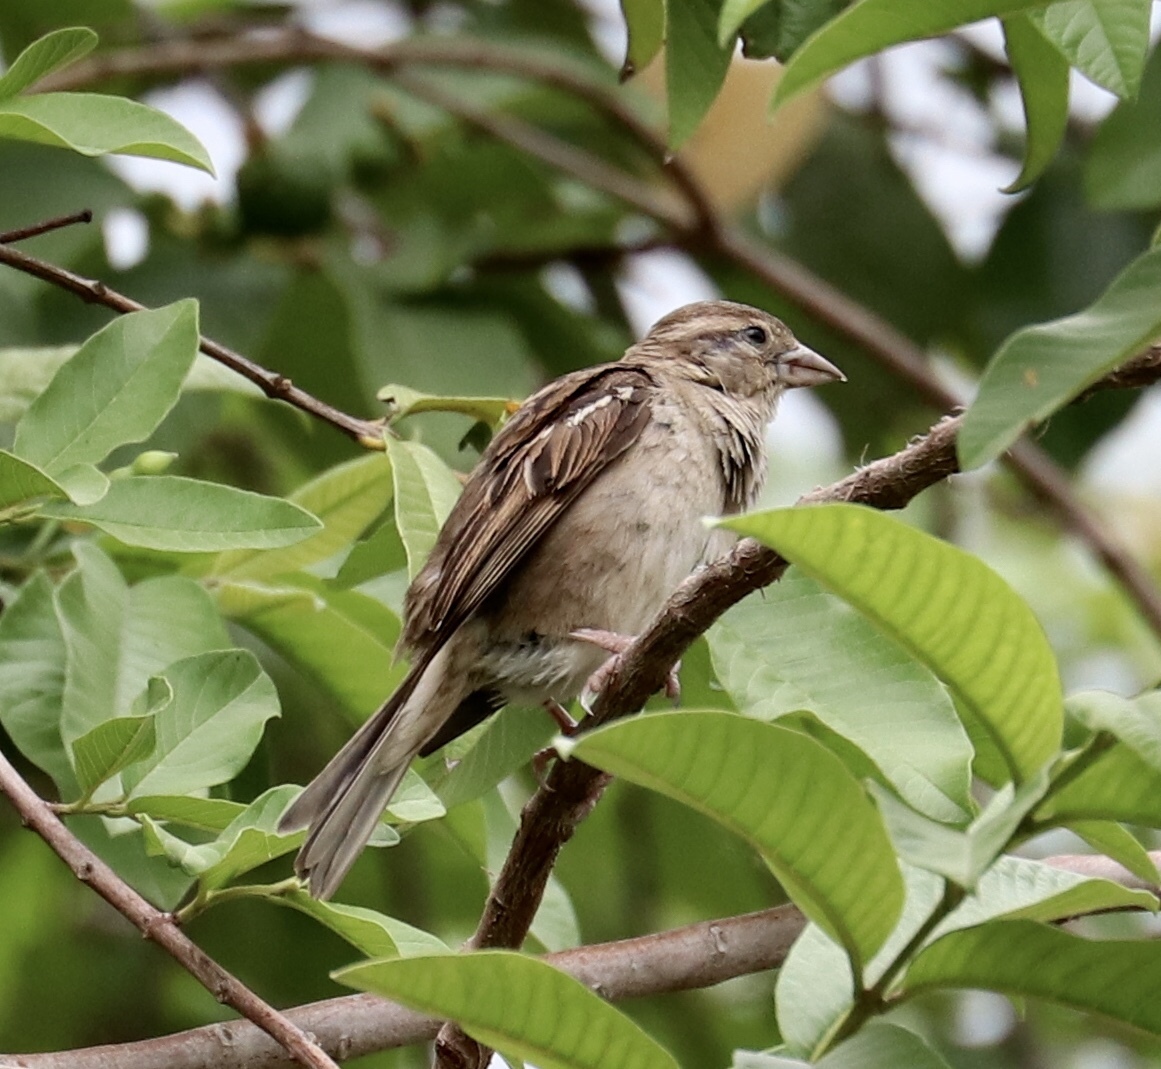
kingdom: Animalia
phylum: Chordata
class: Aves
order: Passeriformes
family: Passeridae
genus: Passer
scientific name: Passer domesticus
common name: House sparrow
